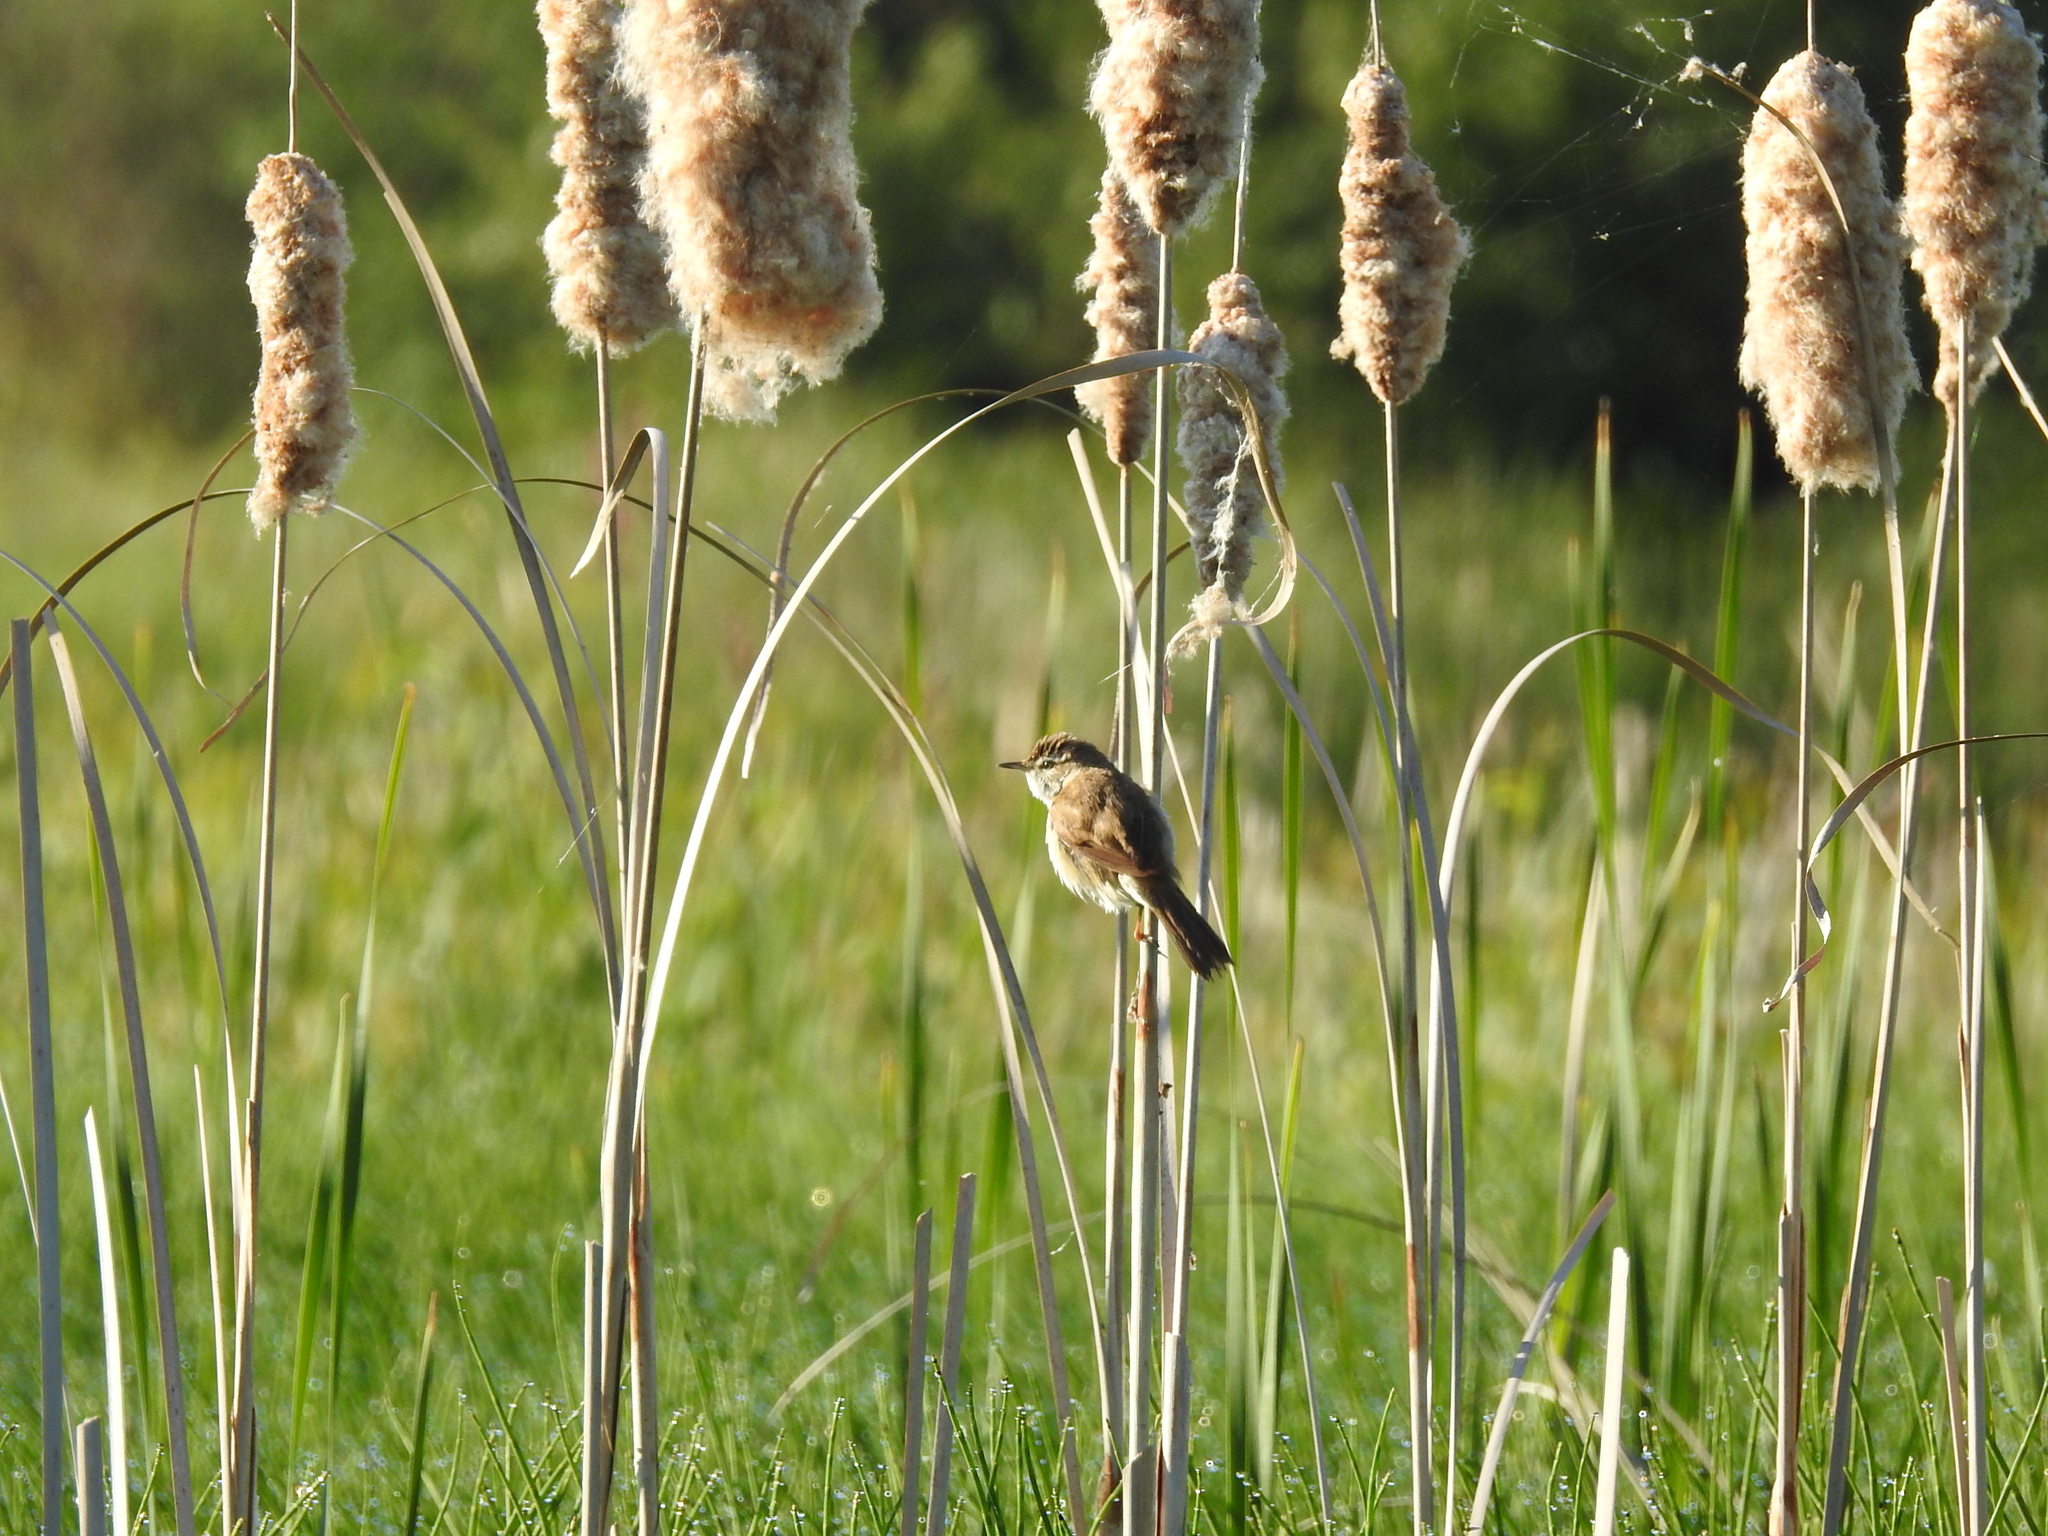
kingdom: Animalia
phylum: Chordata
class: Aves
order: Passeriformes
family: Acrocephalidae
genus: Acrocephalus
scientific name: Acrocephalus agricola
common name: Paddyfield warbler
